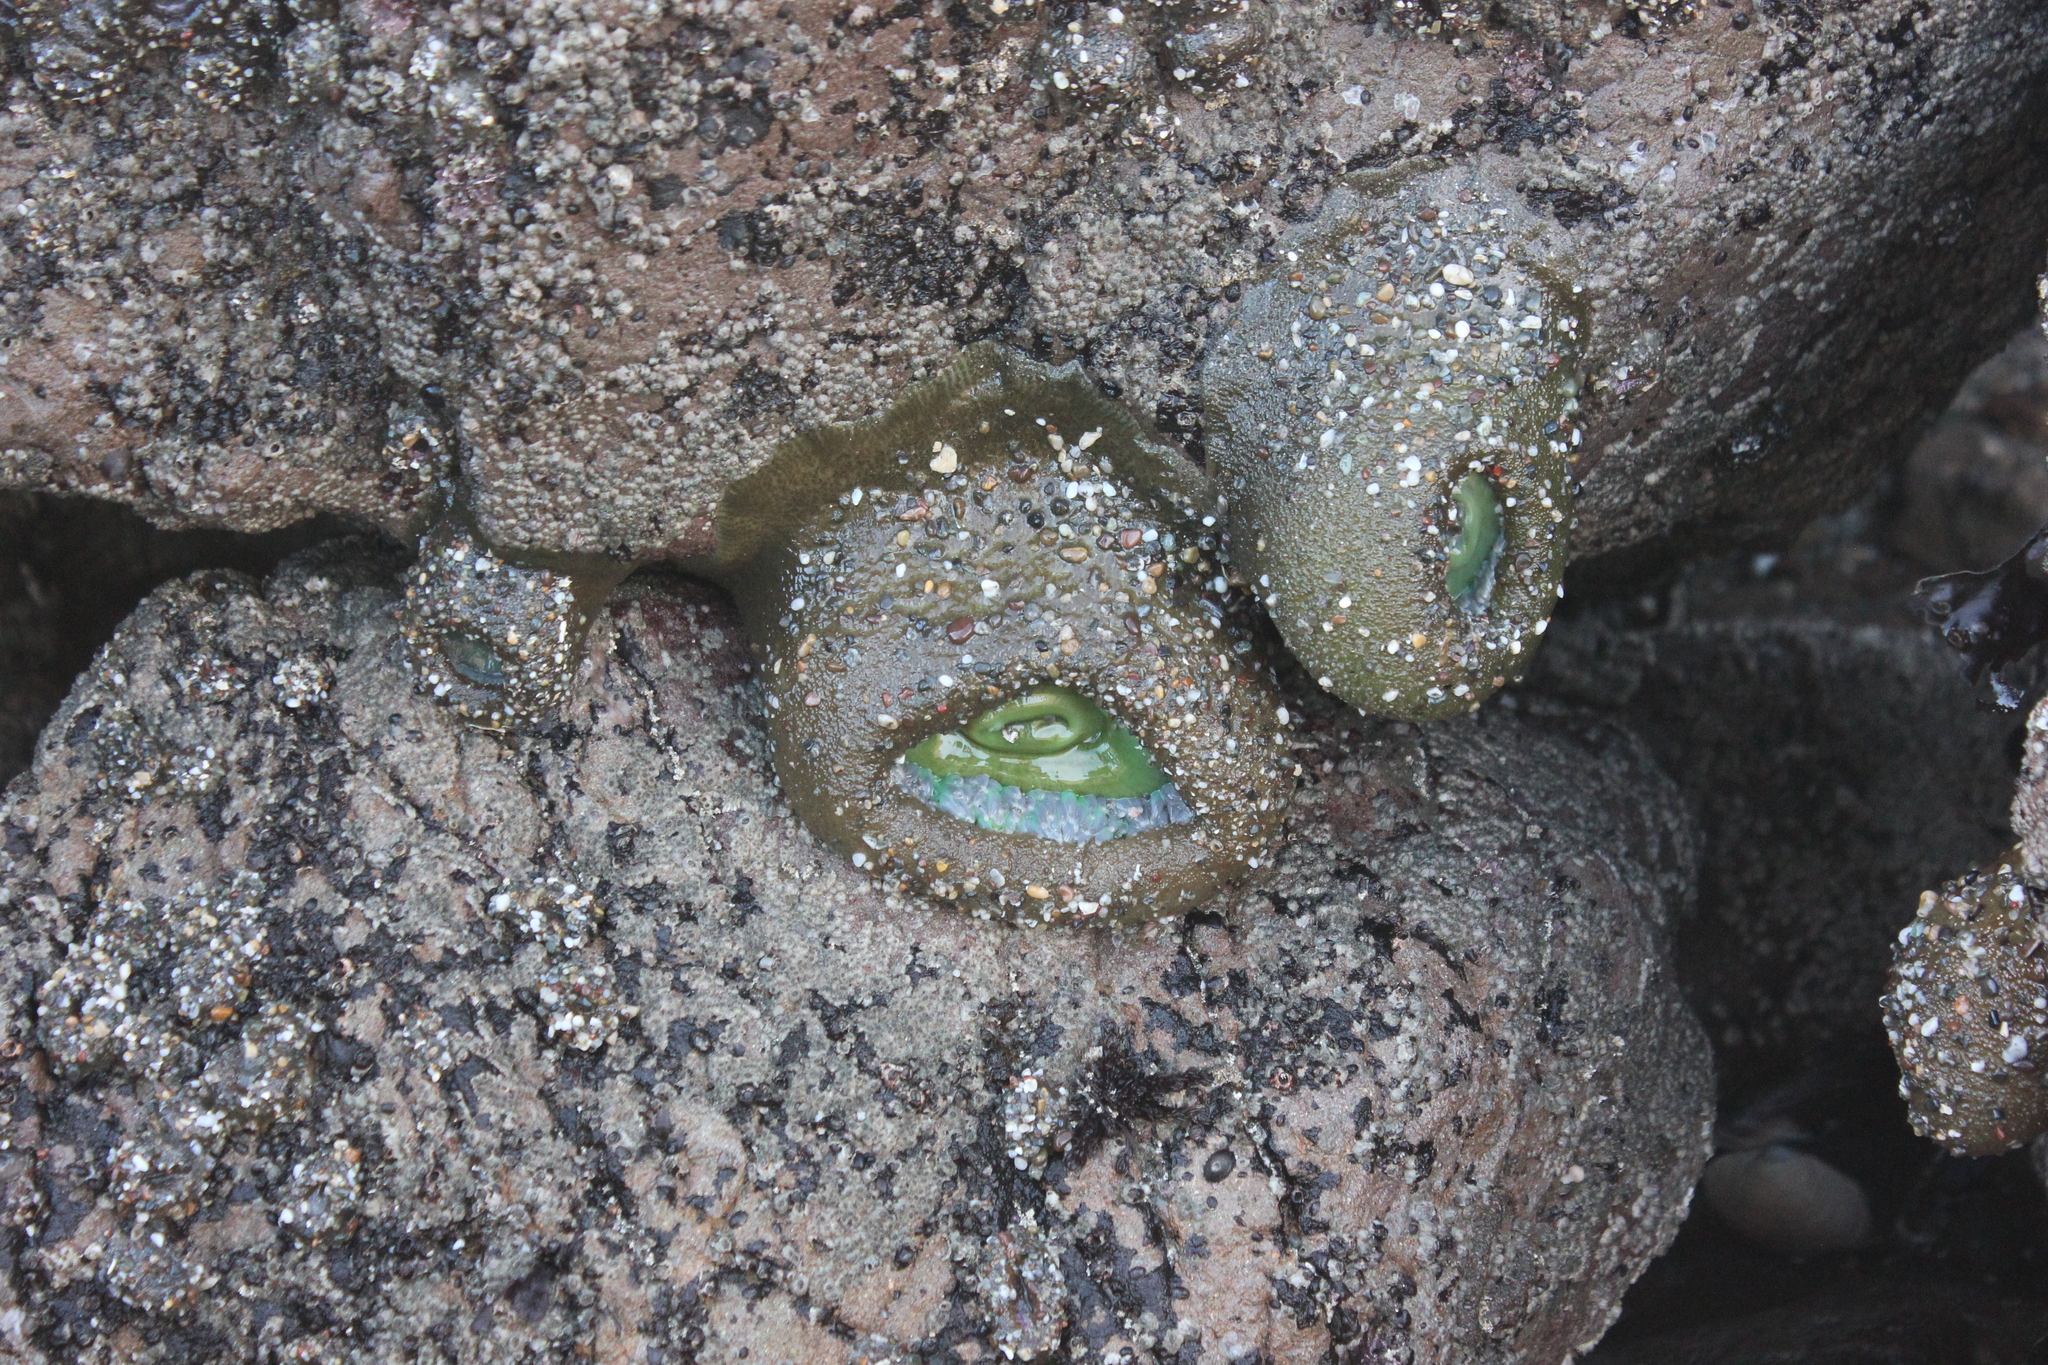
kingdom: Animalia
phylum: Cnidaria
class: Anthozoa
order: Actiniaria
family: Actiniidae
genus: Anthopleura
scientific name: Anthopleura xanthogrammica
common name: Giant green anemone
